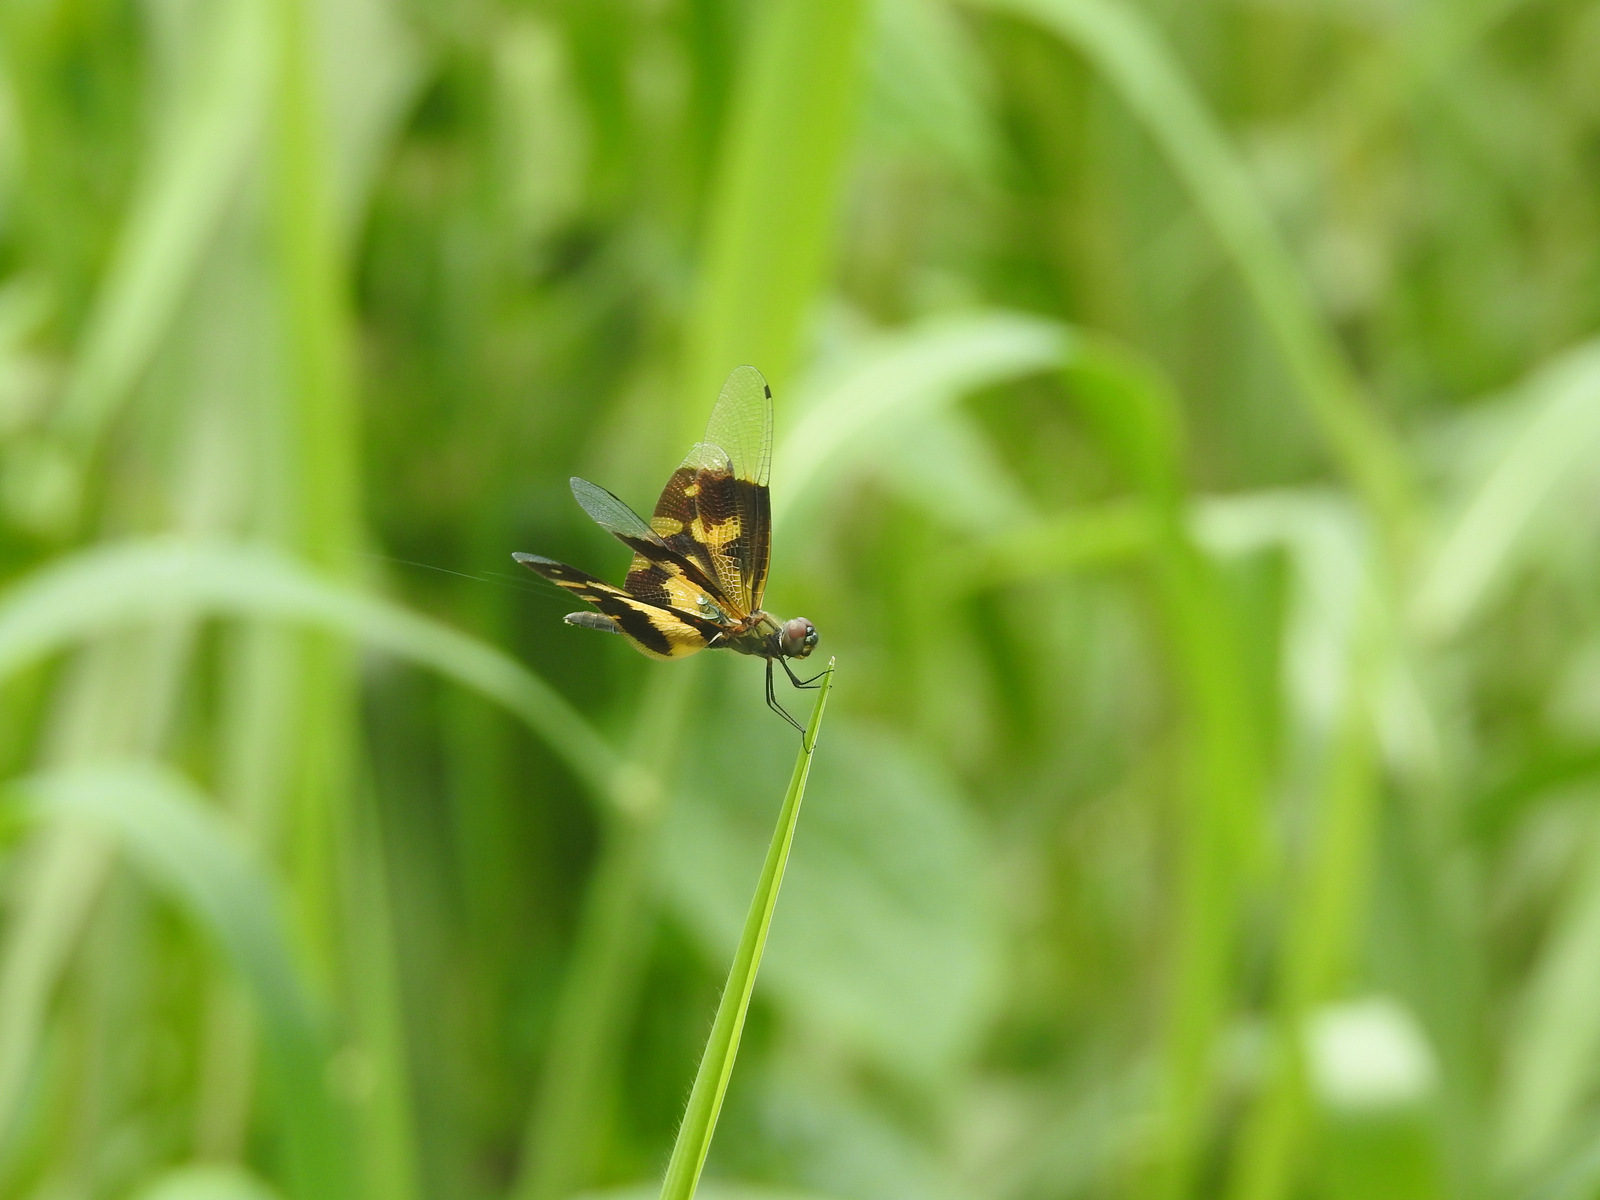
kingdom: Animalia
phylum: Arthropoda
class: Insecta
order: Odonata
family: Libellulidae
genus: Rhyothemis
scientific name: Rhyothemis variegata
